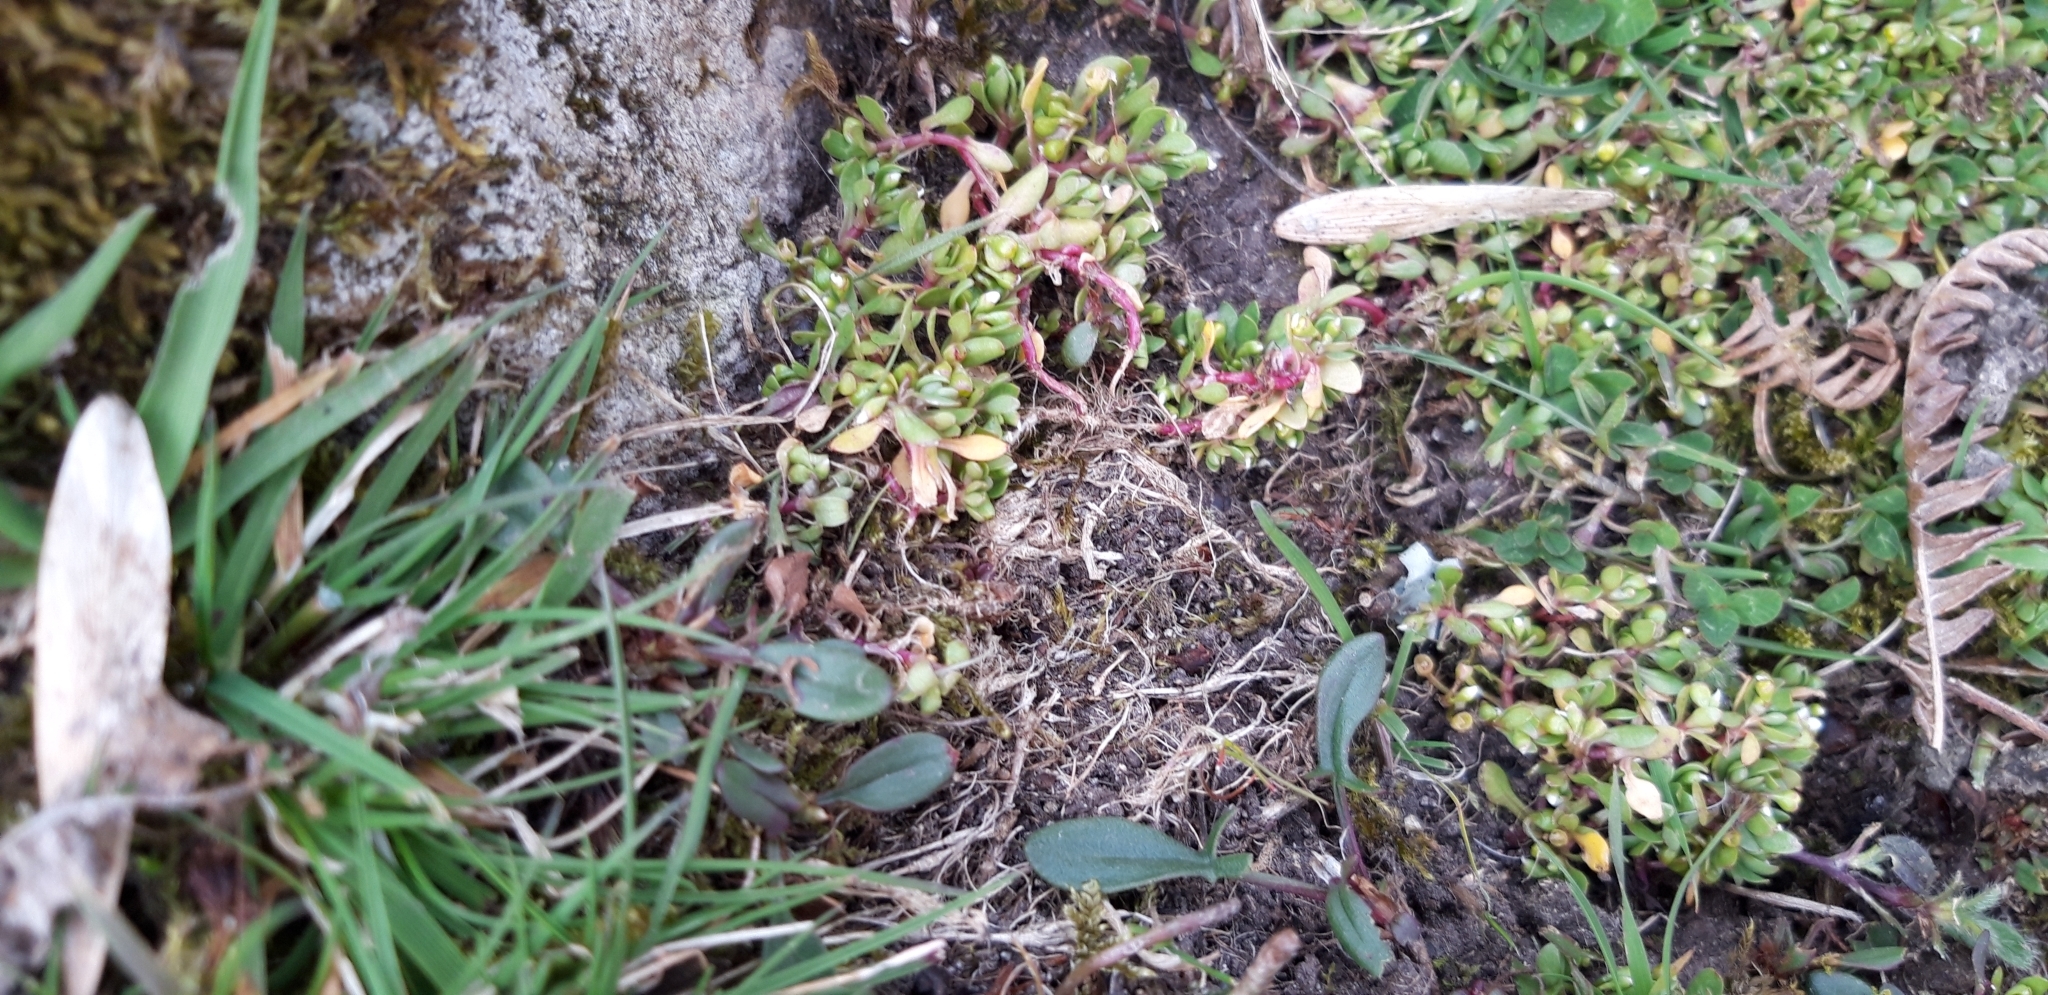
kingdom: Plantae
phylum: Tracheophyta
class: Magnoliopsida
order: Caryophyllales
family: Montiaceae
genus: Montia
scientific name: Montia fontana
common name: Blinks
